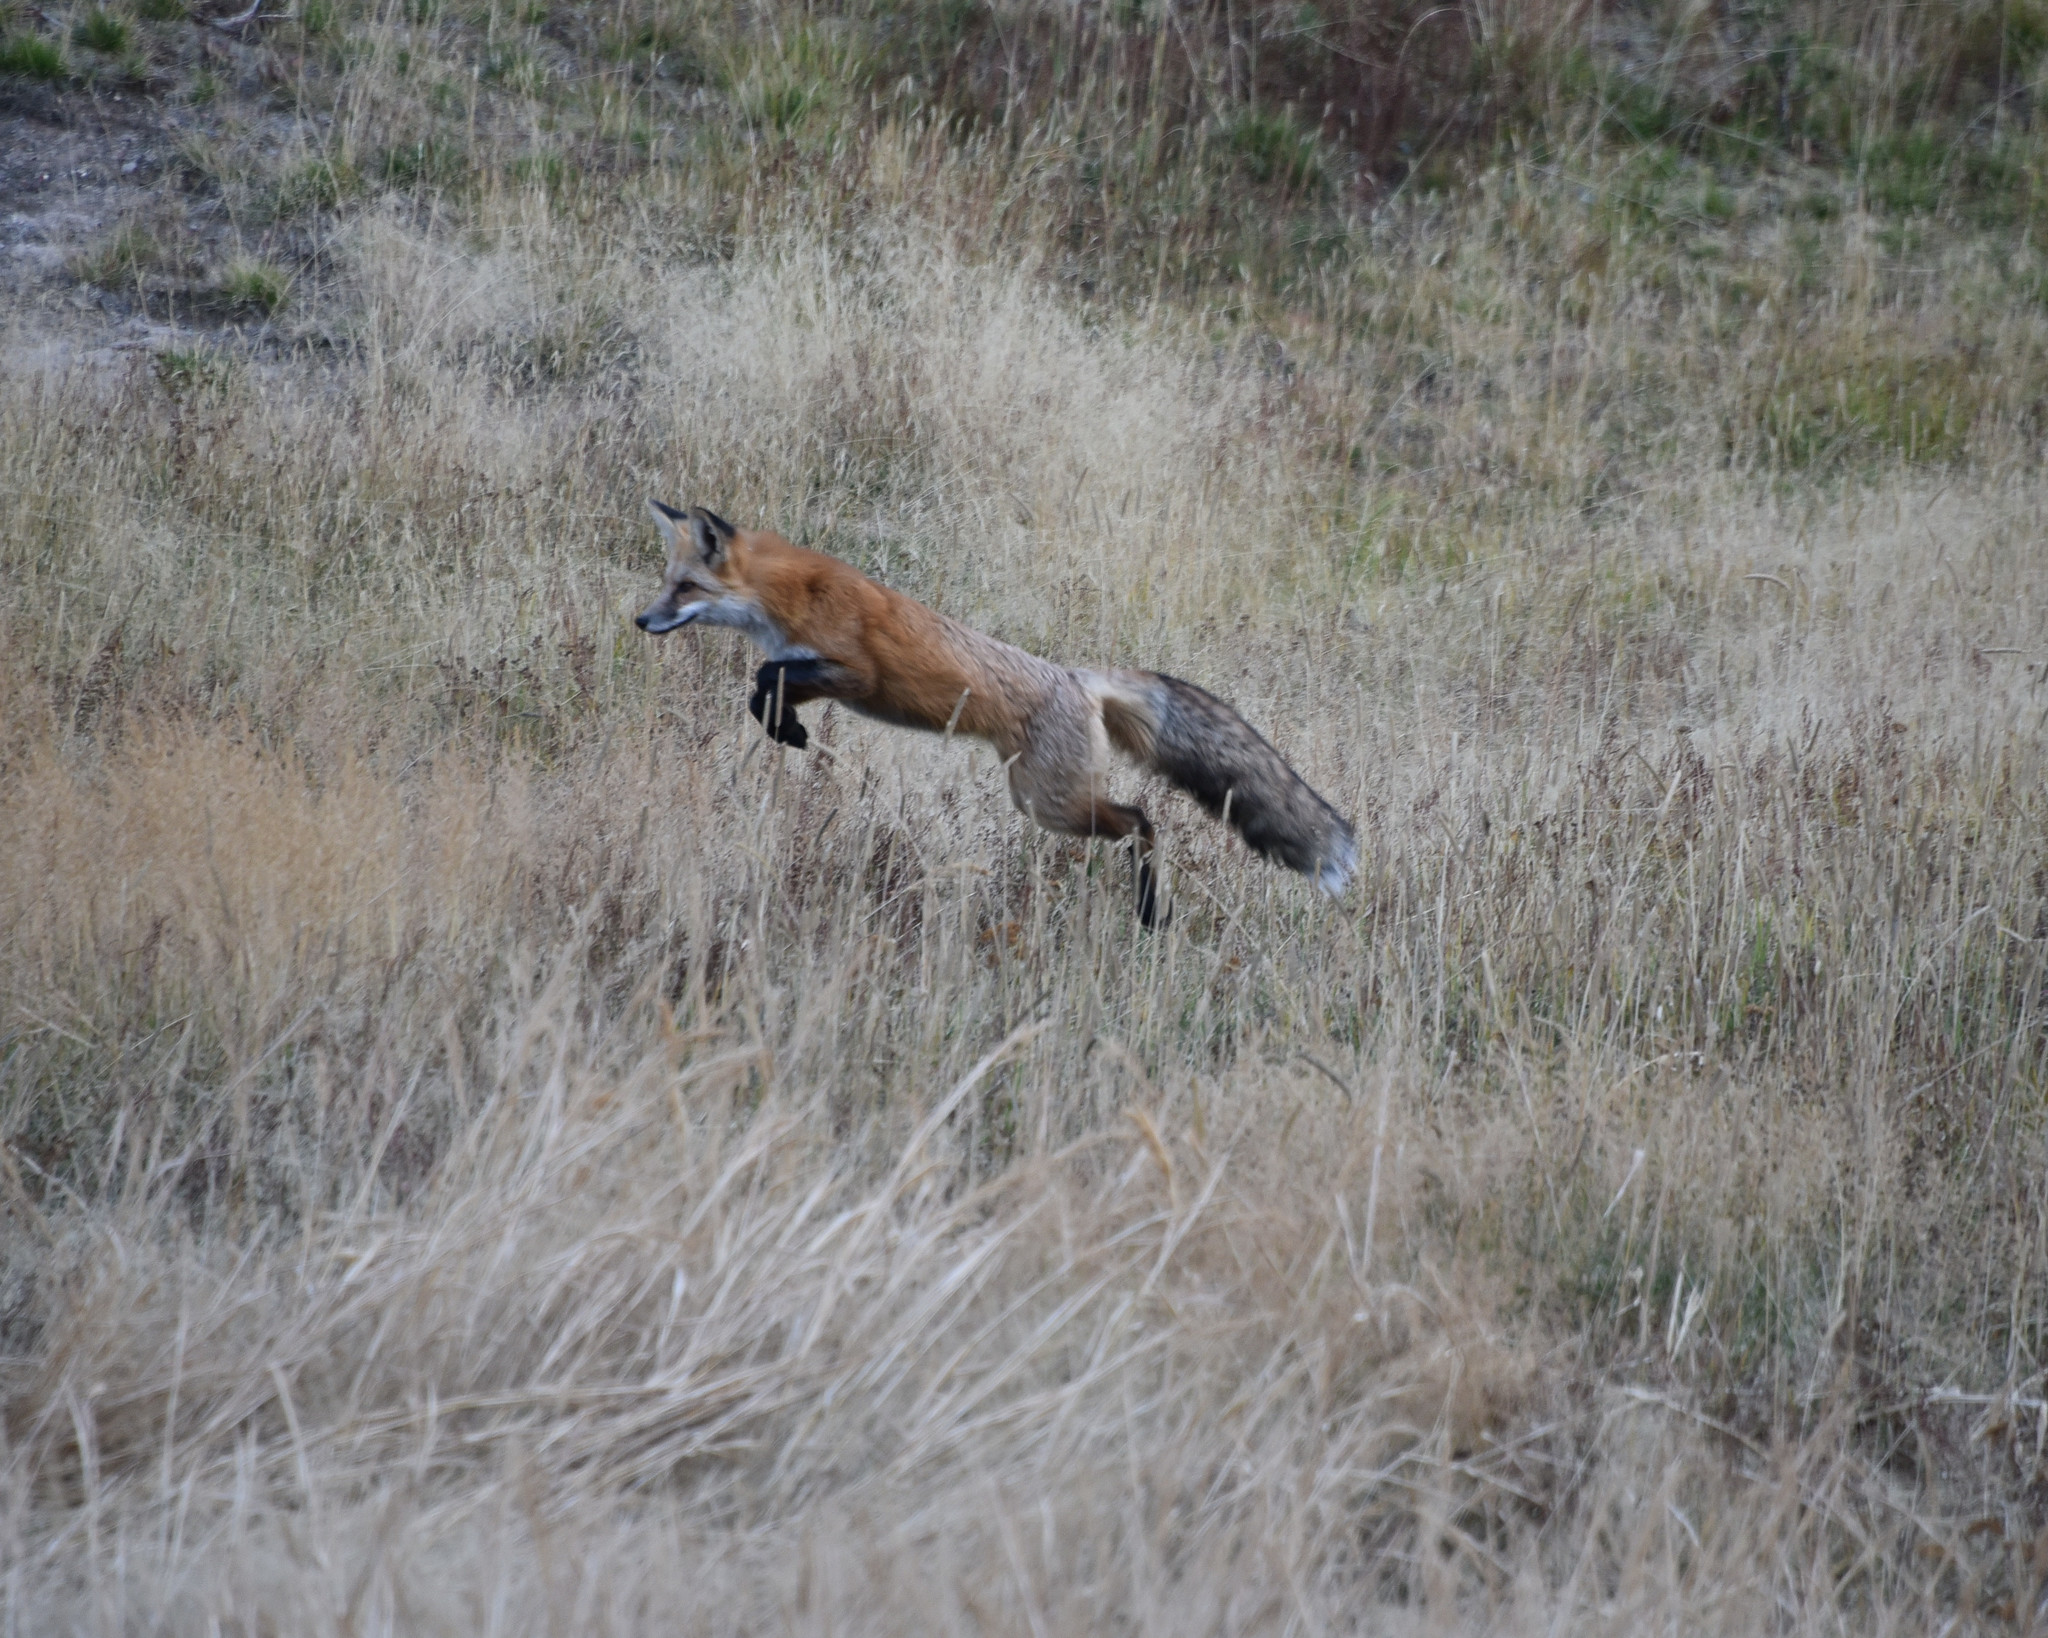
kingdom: Animalia
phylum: Chordata
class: Mammalia
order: Carnivora
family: Canidae
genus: Vulpes
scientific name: Vulpes vulpes
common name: Red fox
